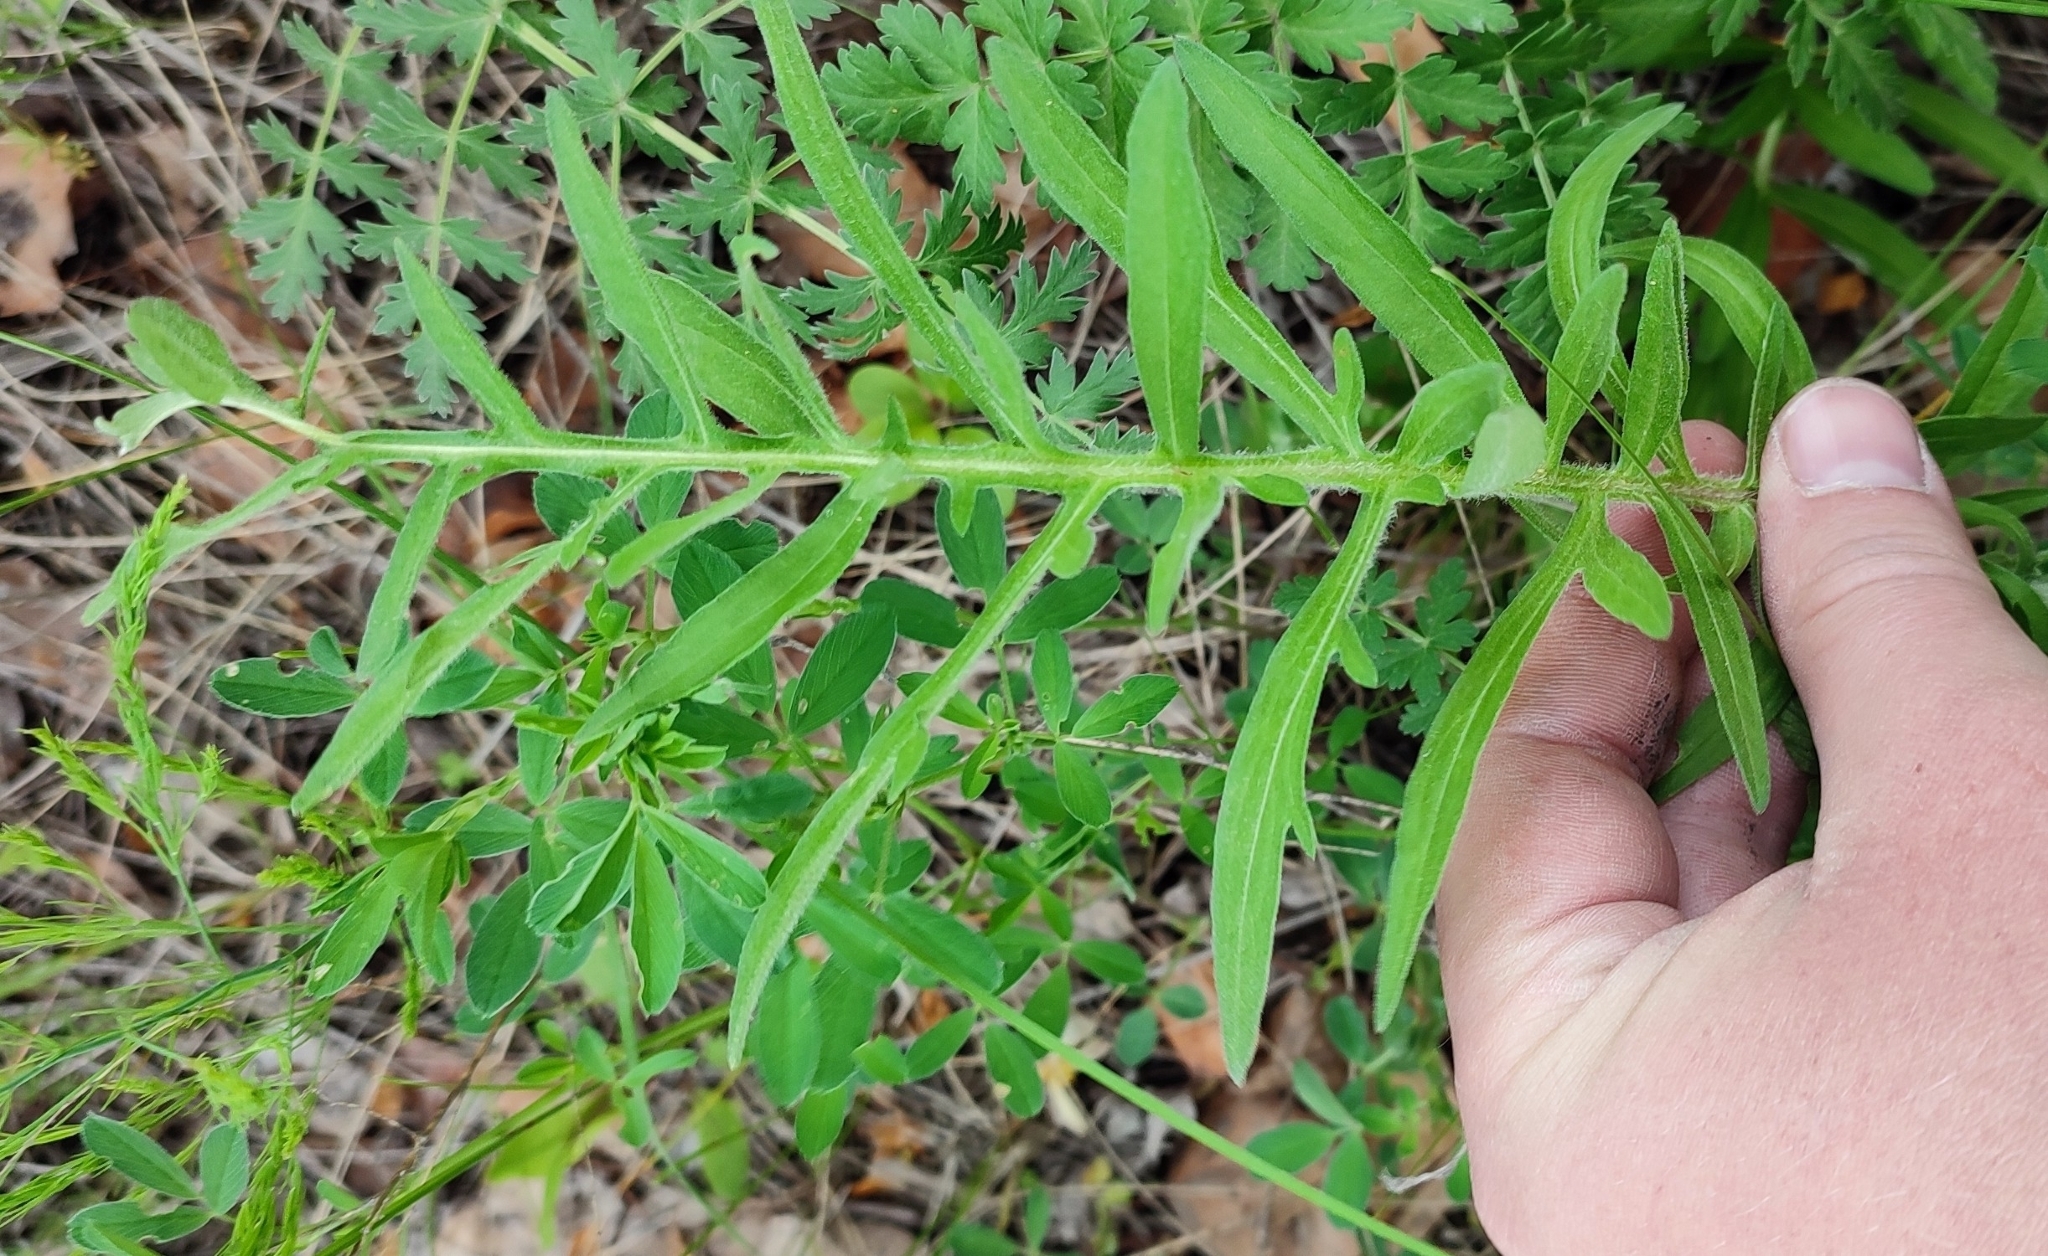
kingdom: Plantae
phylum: Tracheophyta
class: Magnoliopsida
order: Asterales
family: Asteraceae
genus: Centaurea
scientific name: Centaurea scabiosa
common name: Greater knapweed
